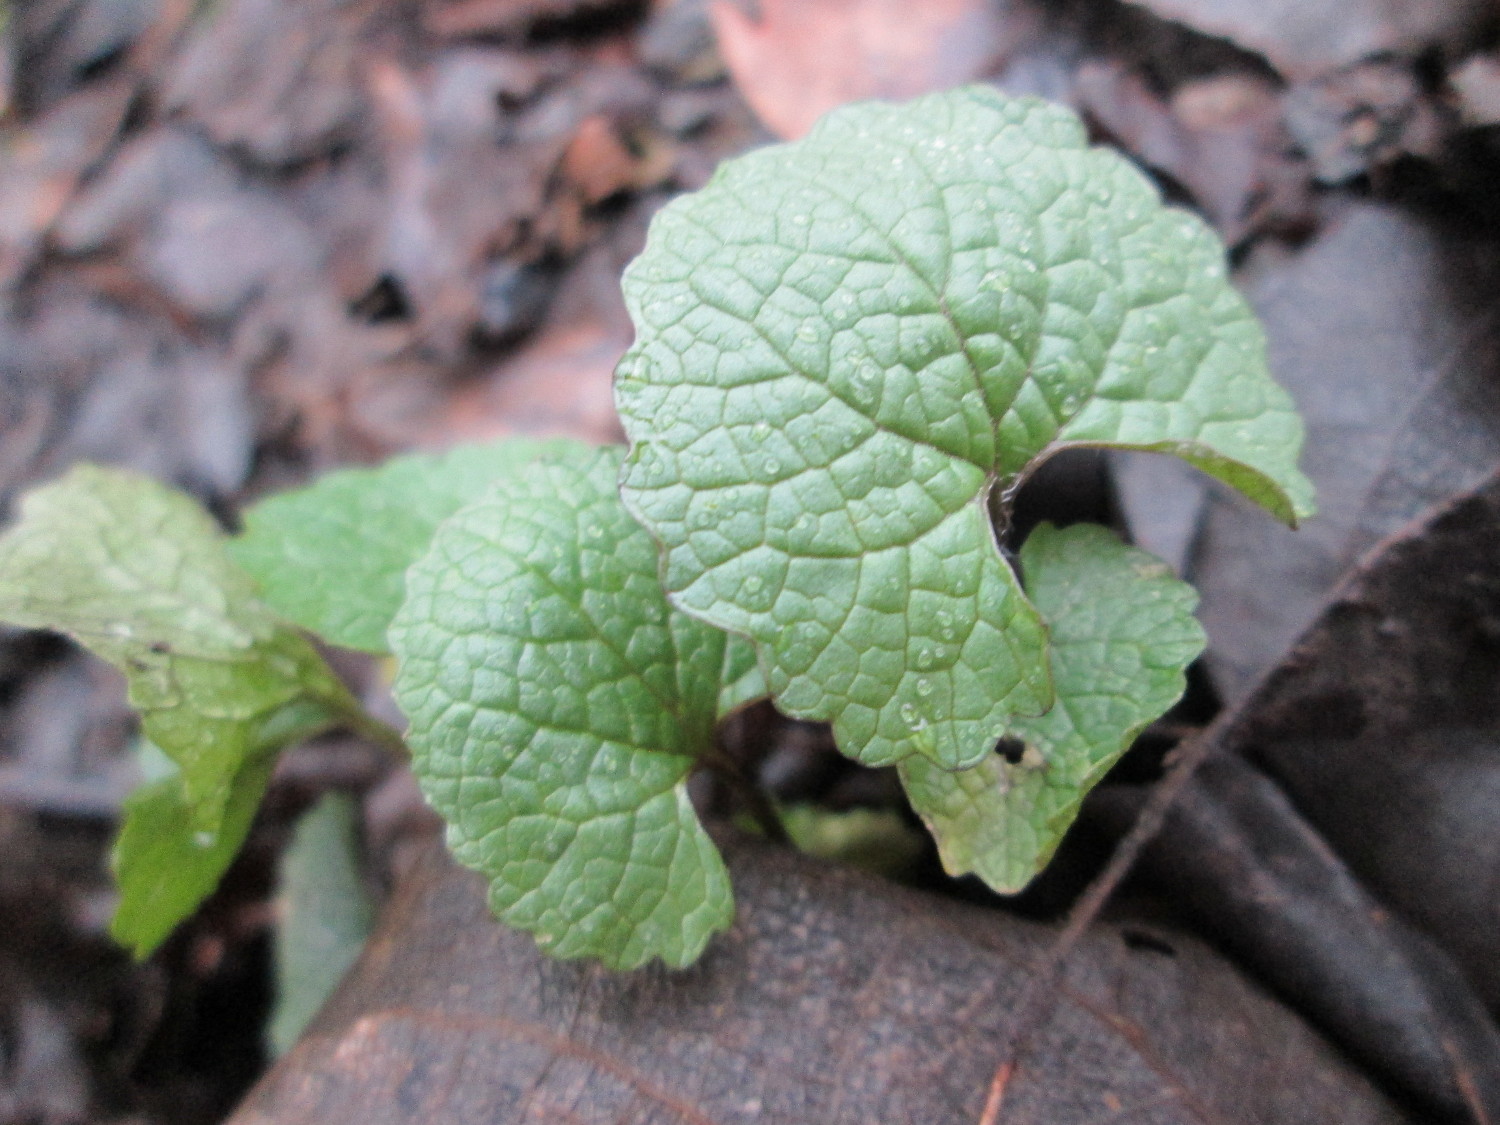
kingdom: Plantae
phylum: Tracheophyta
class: Magnoliopsida
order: Brassicales
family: Brassicaceae
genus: Alliaria
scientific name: Alliaria petiolata
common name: Garlic mustard
